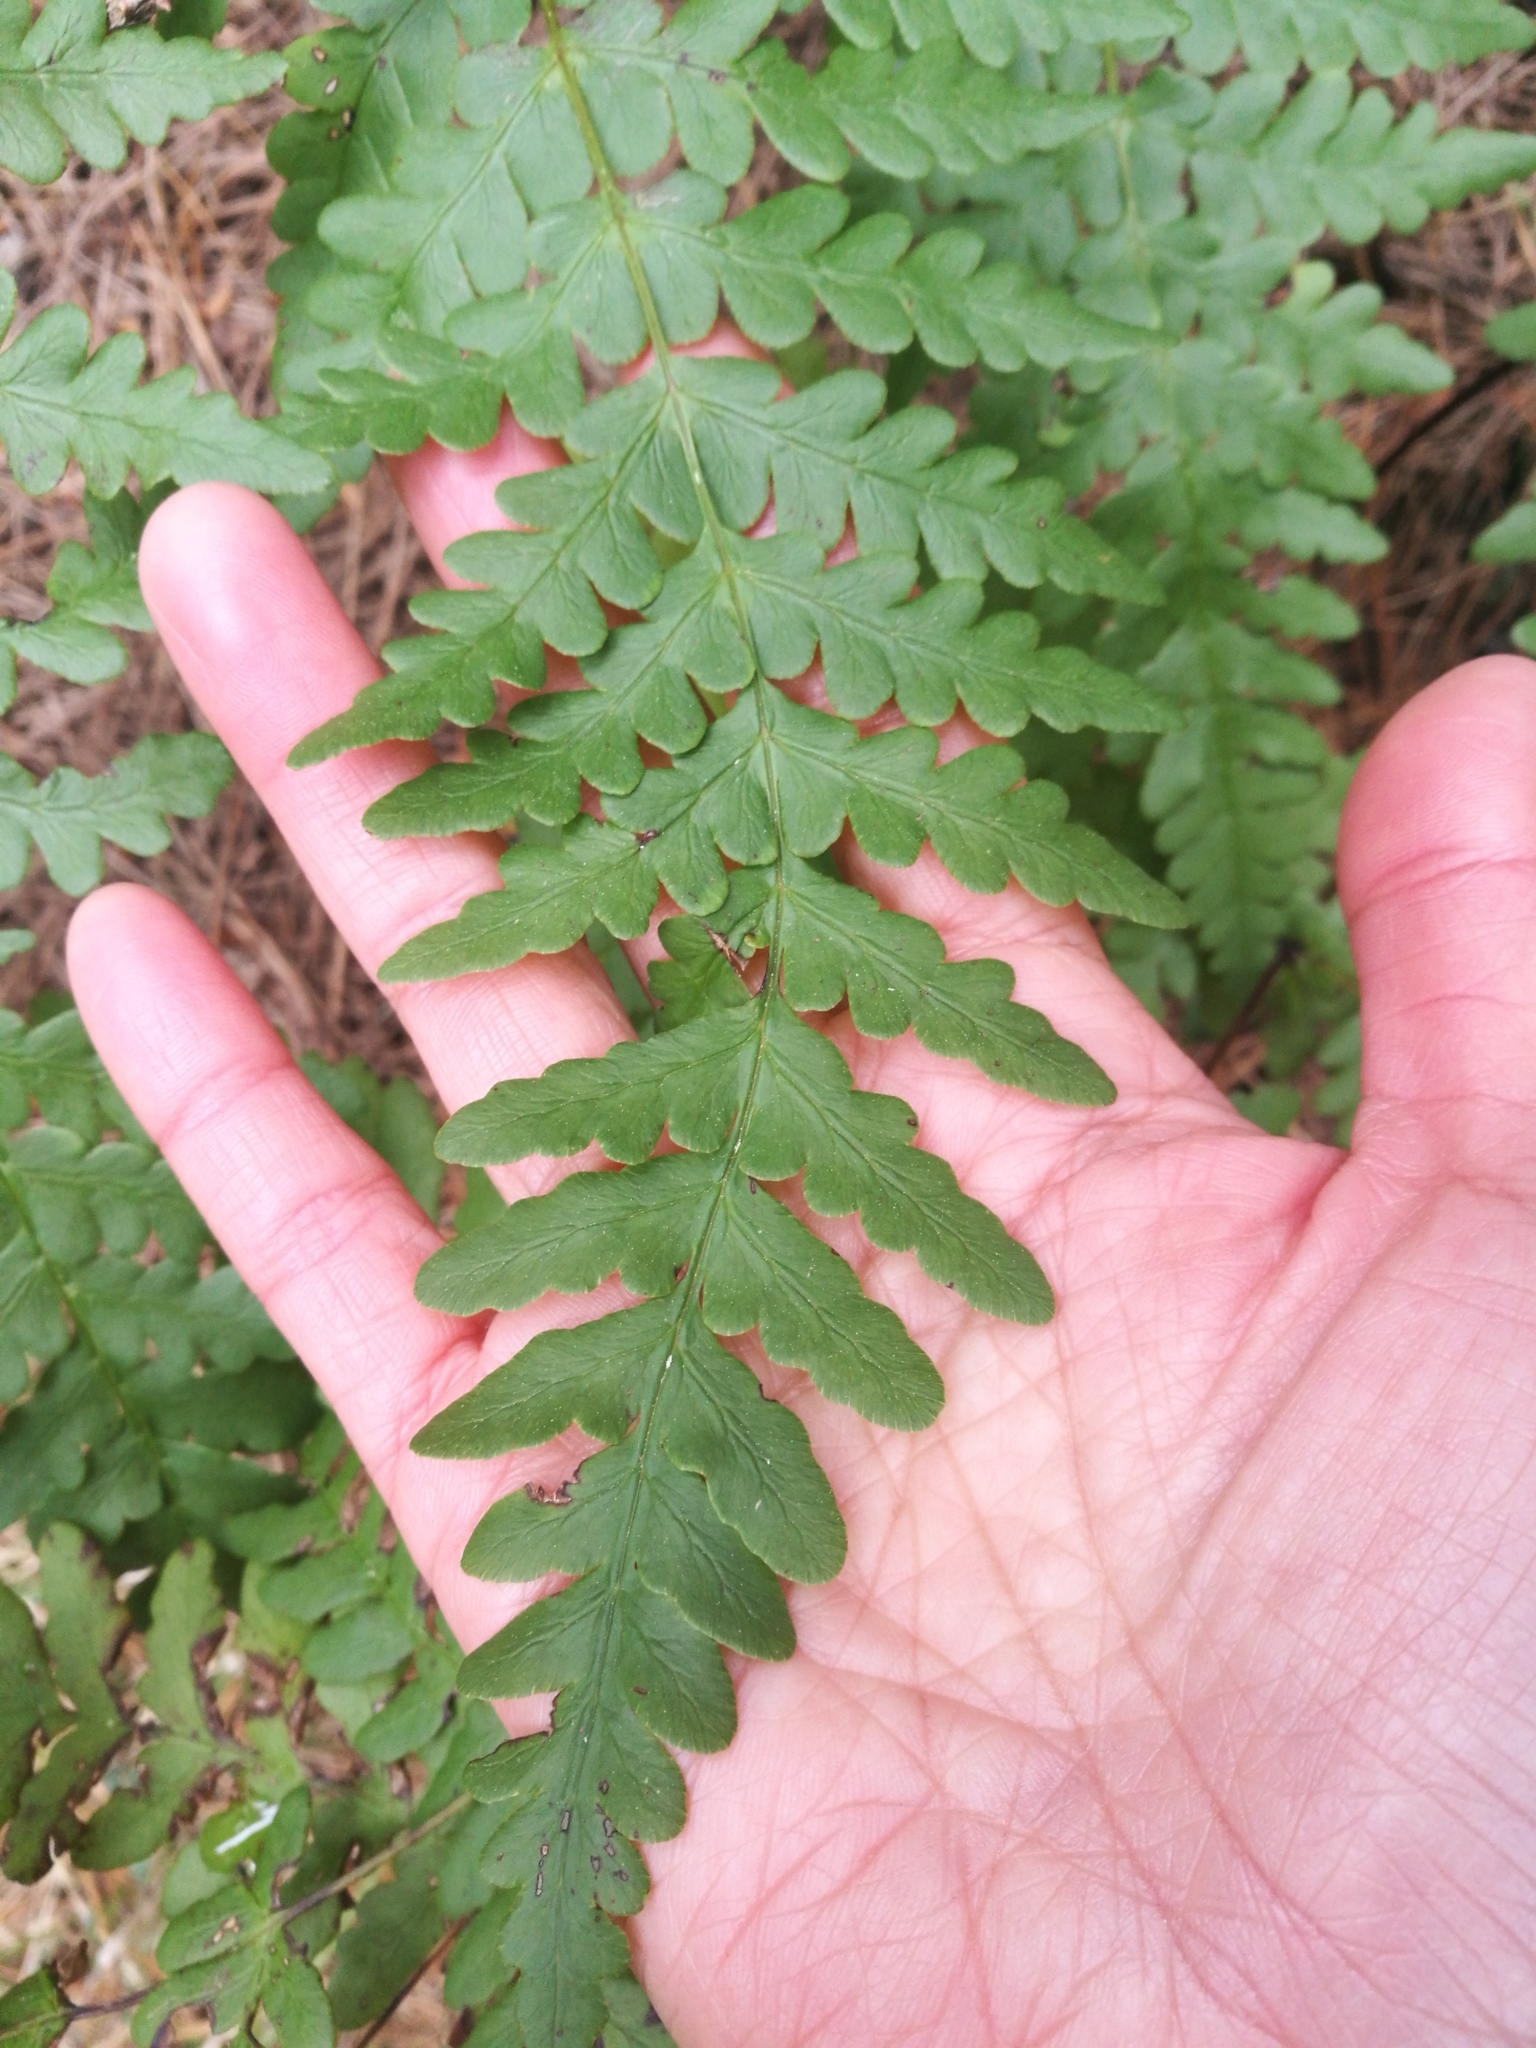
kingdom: Plantae
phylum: Tracheophyta
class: Polypodiopsida
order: Polypodiales
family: Dennstaedtiaceae
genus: Histiopteris
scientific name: Histiopteris incisa
